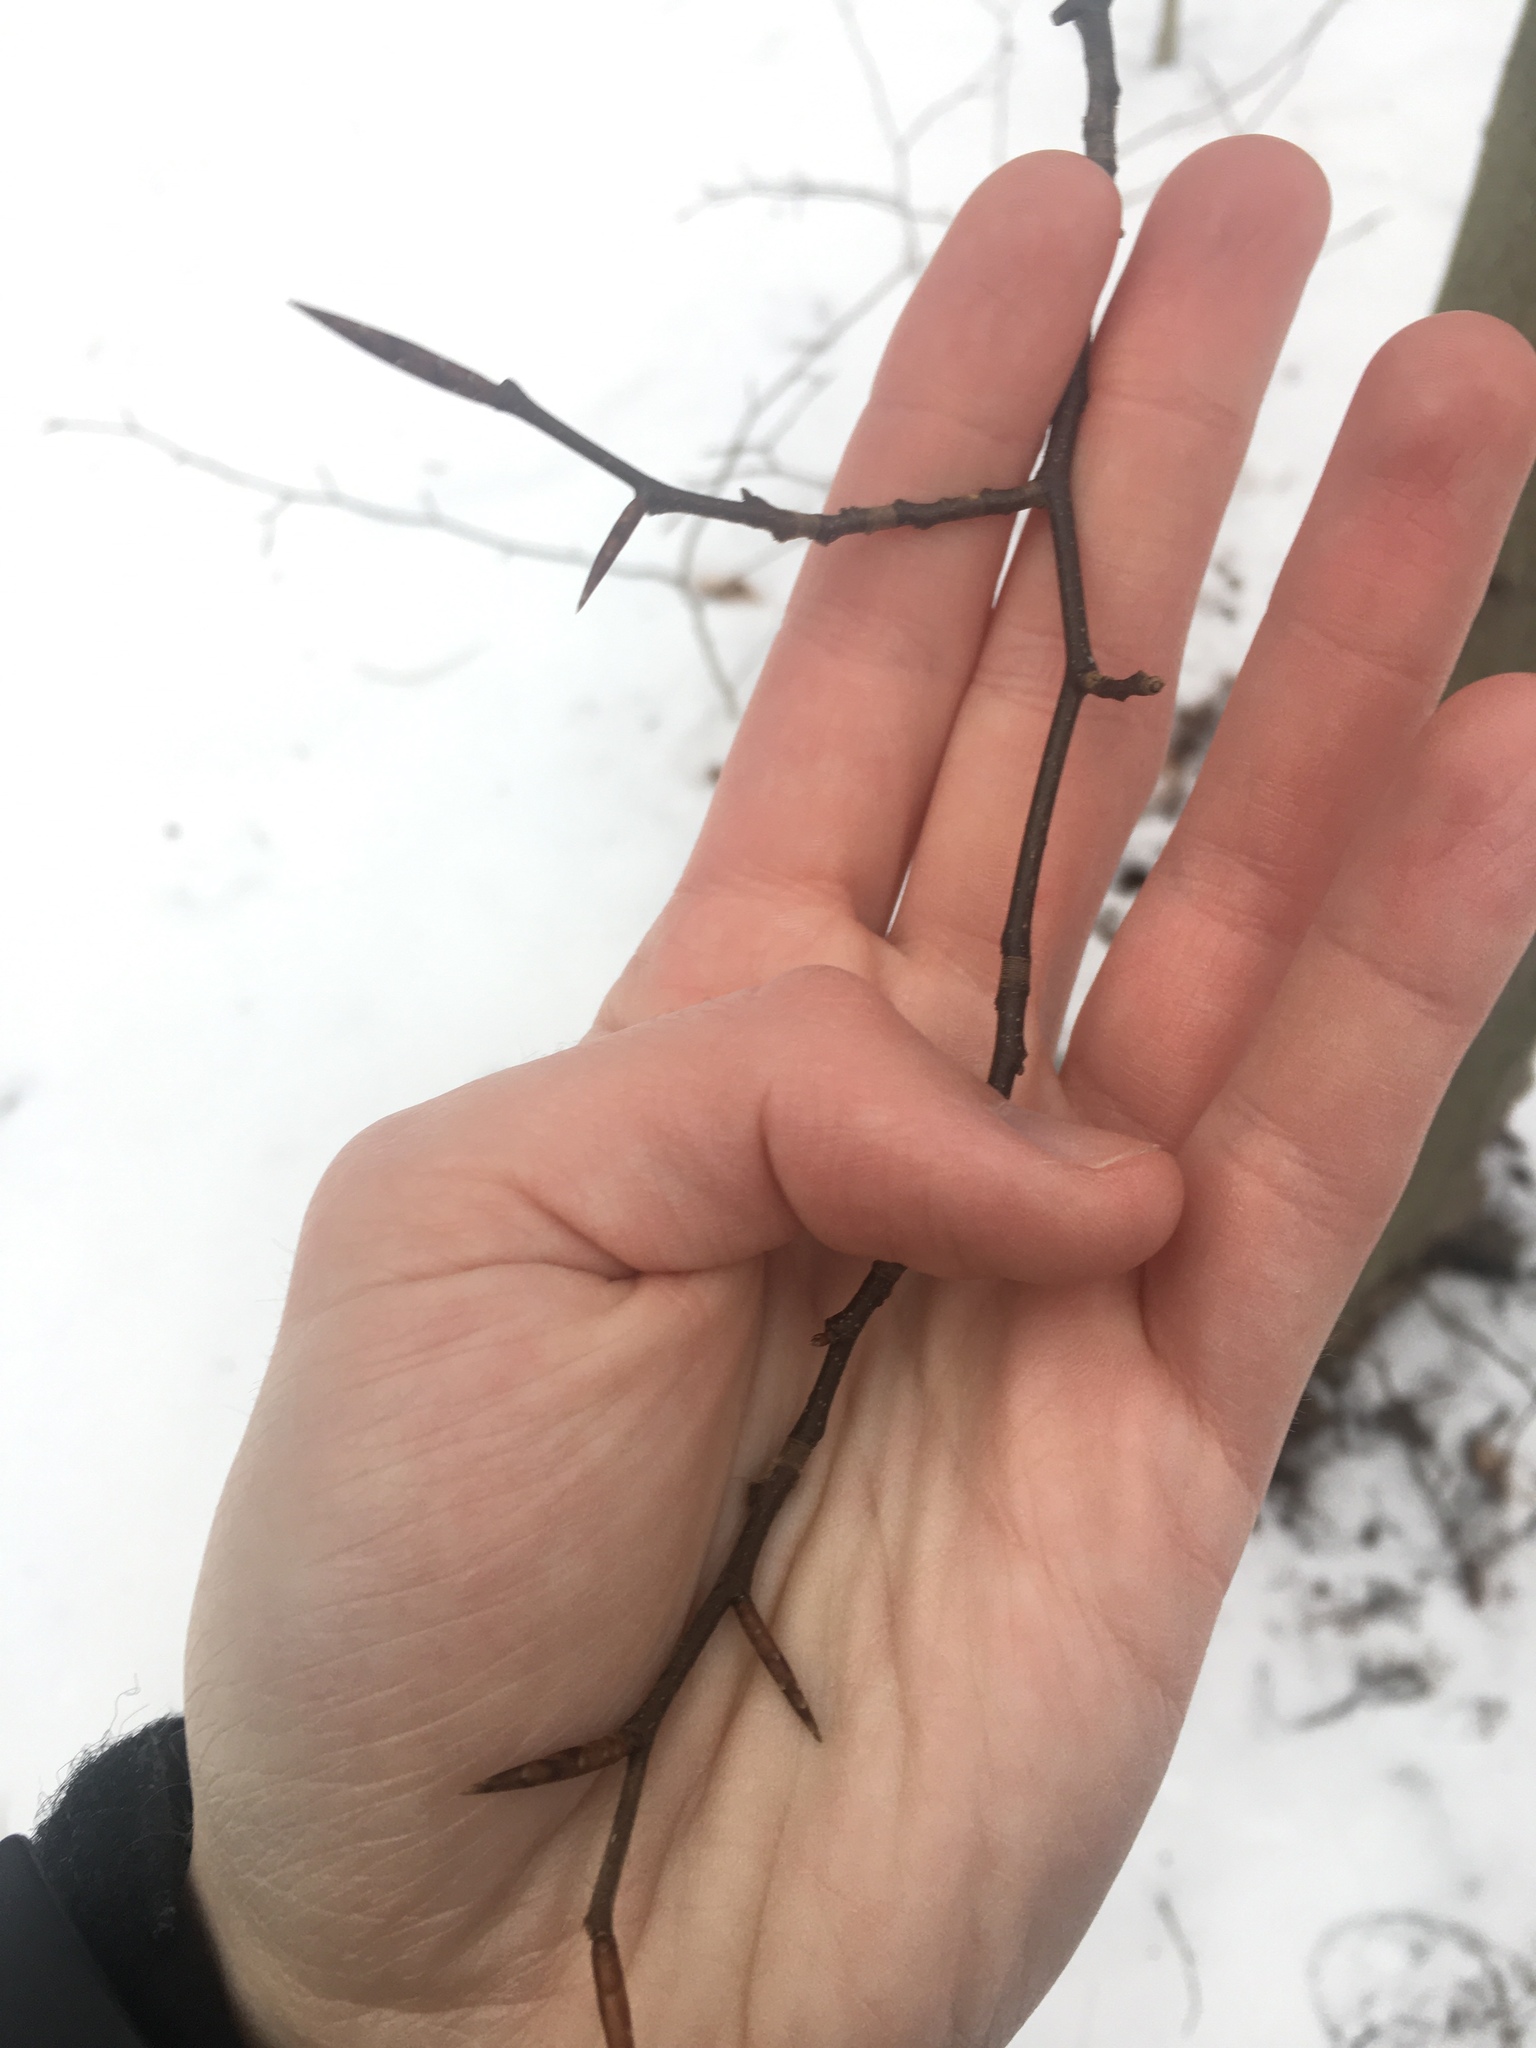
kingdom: Plantae
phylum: Tracheophyta
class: Magnoliopsida
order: Fagales
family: Fagaceae
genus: Fagus
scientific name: Fagus grandifolia
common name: American beech
